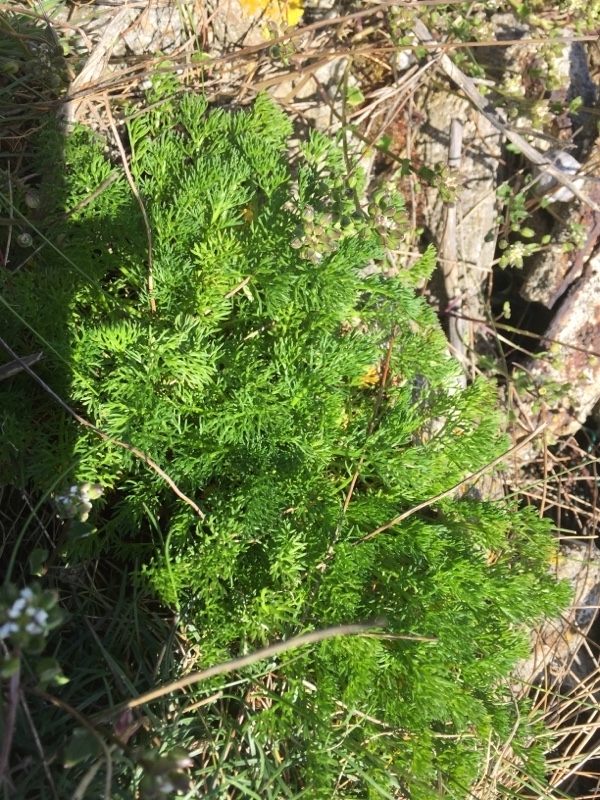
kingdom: Plantae
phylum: Tracheophyta
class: Magnoliopsida
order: Apiales
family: Apiaceae
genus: Foeniculum
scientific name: Foeniculum vulgare
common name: Fennel
